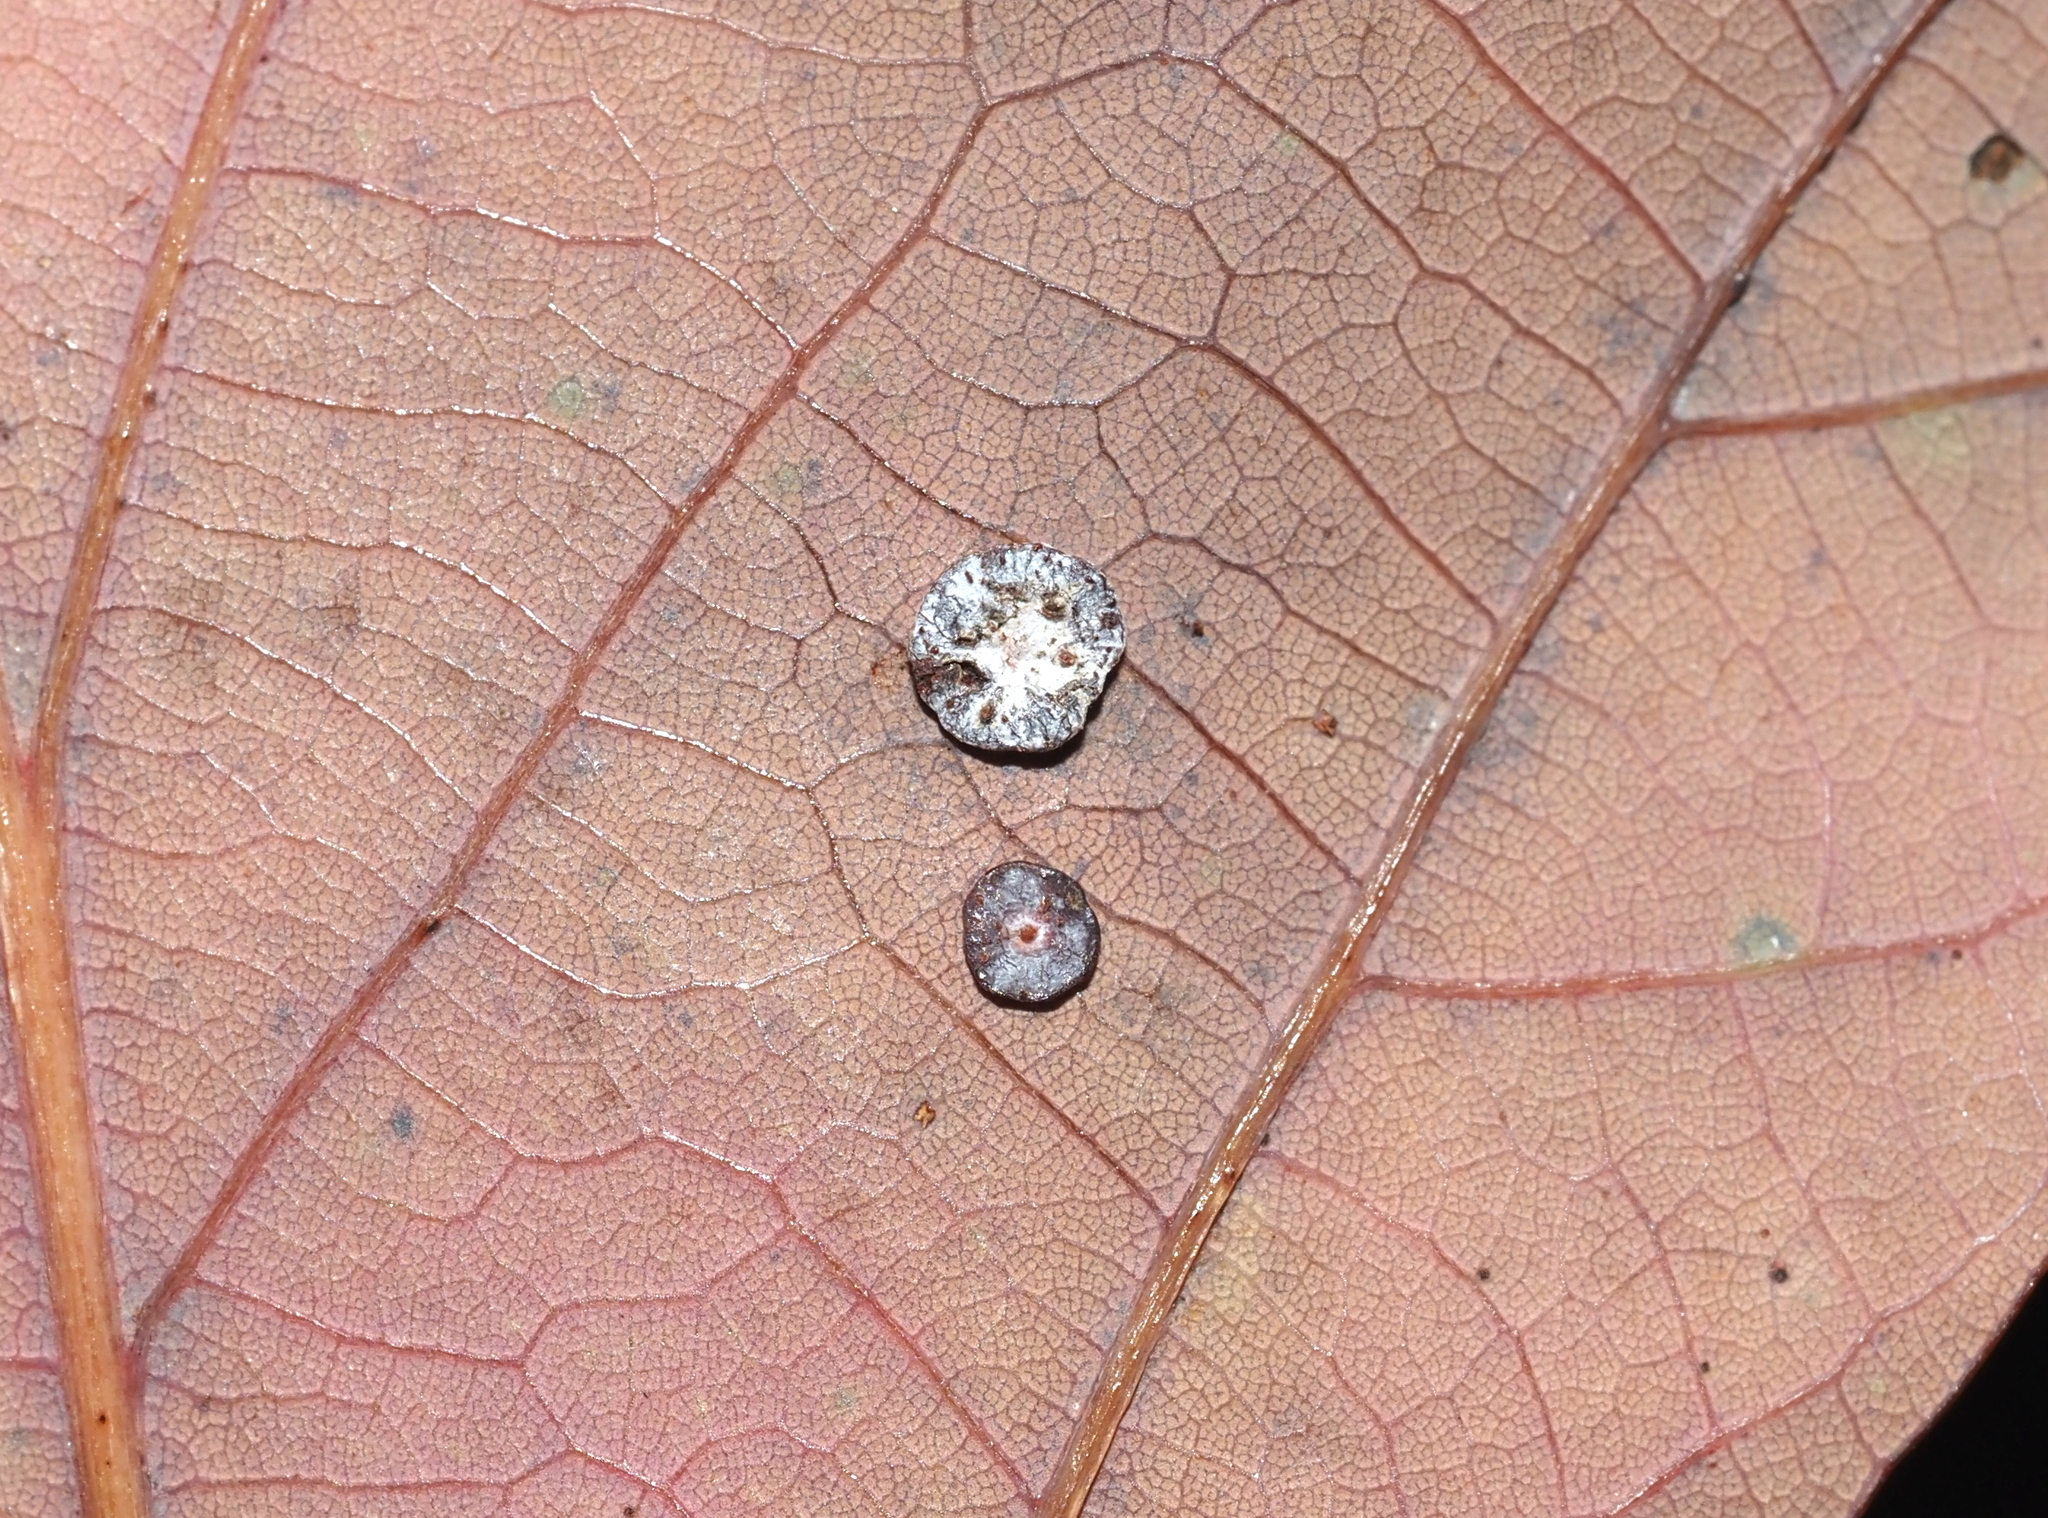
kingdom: Animalia
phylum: Arthropoda
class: Insecta
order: Hymenoptera
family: Cynipidae
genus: Phylloteras
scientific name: Phylloteras poculum
